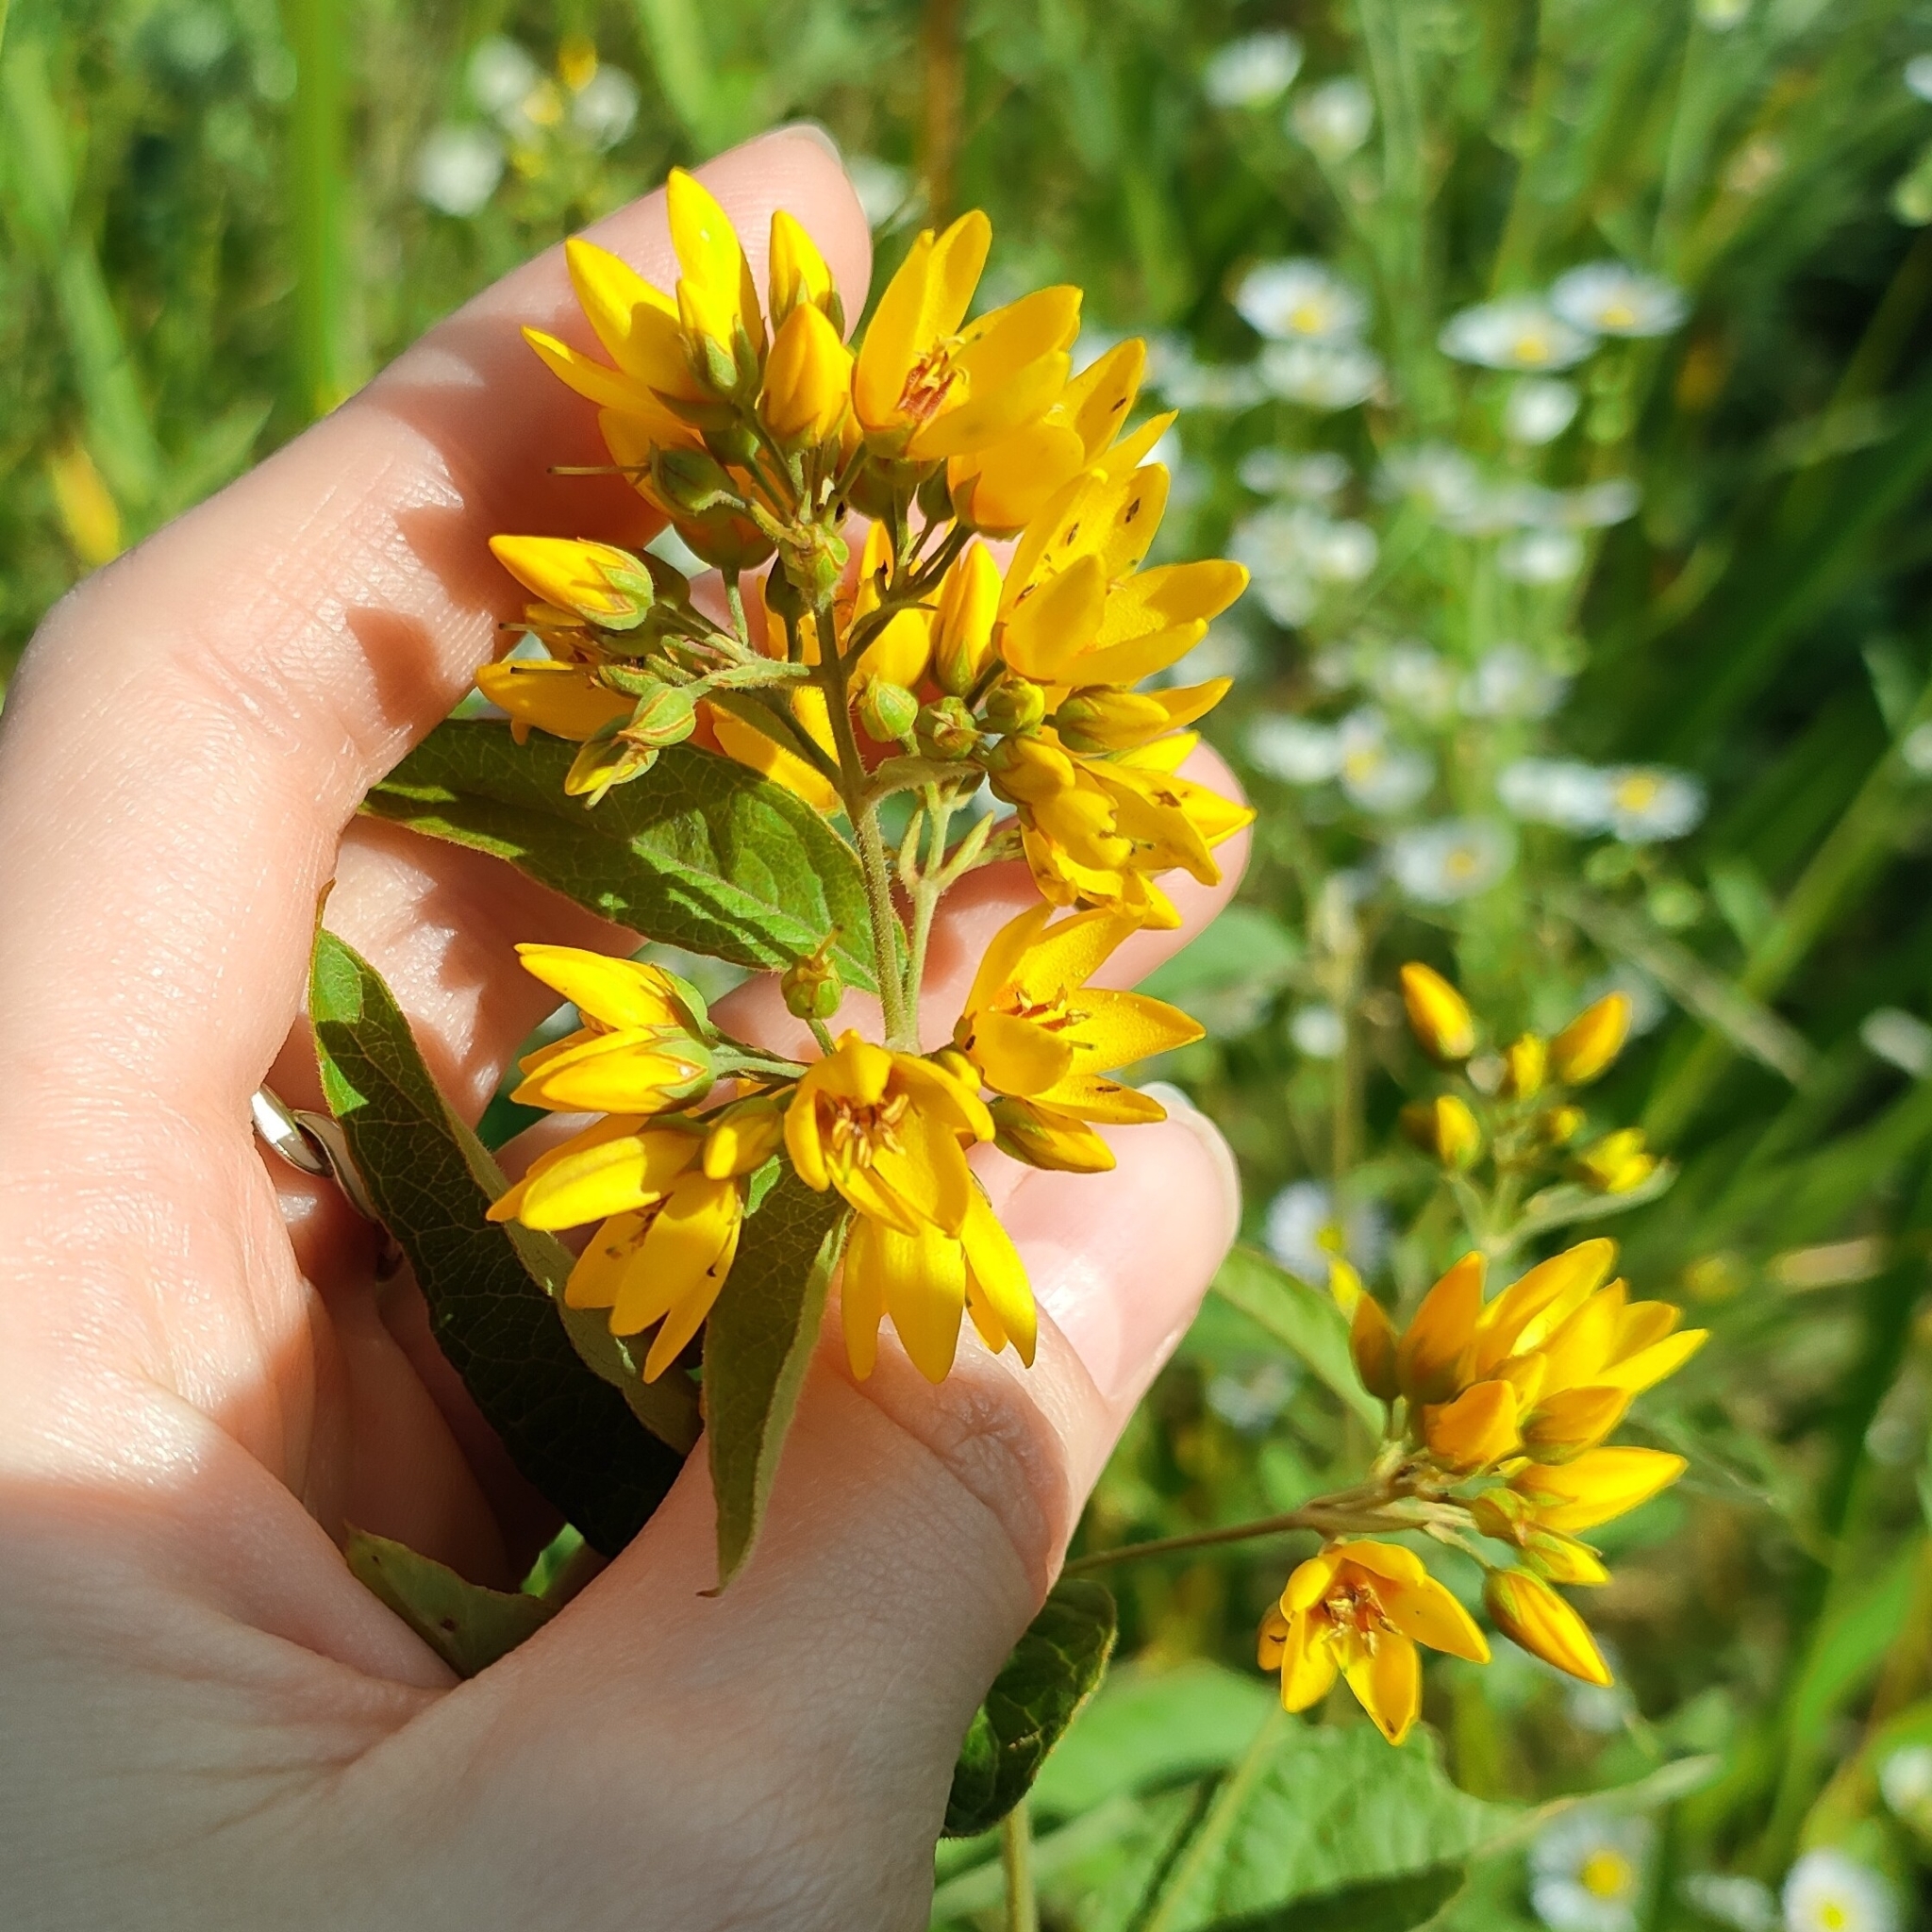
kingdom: Plantae
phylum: Tracheophyta
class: Magnoliopsida
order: Ericales
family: Primulaceae
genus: Lysimachia
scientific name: Lysimachia vulgaris
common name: Yellow loosestrife
